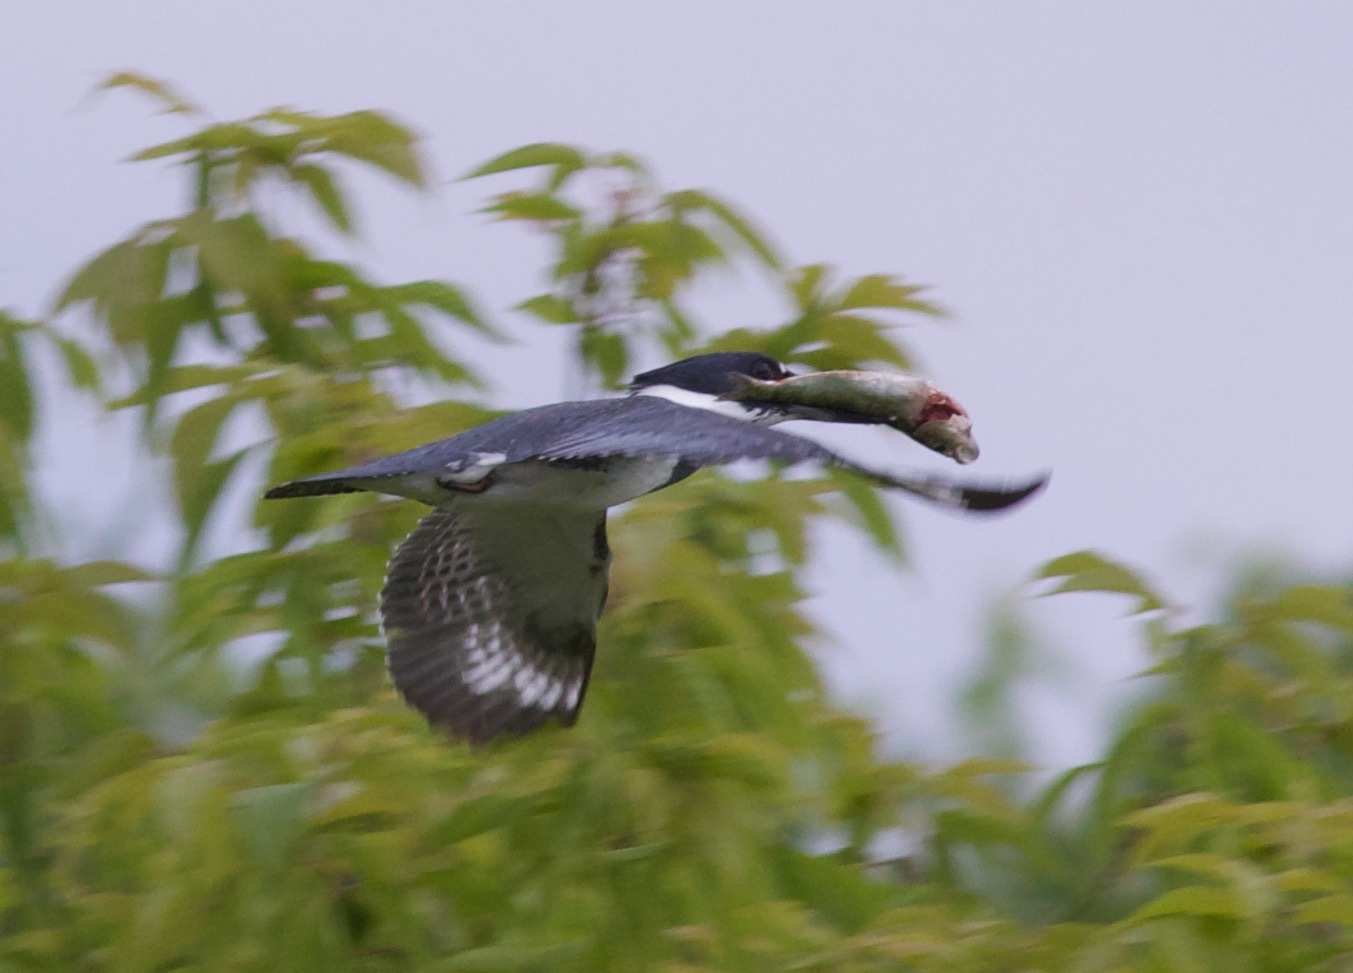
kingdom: Animalia
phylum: Chordata
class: Aves
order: Coraciiformes
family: Alcedinidae
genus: Megaceryle
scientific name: Megaceryle alcyon
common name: Belted kingfisher
